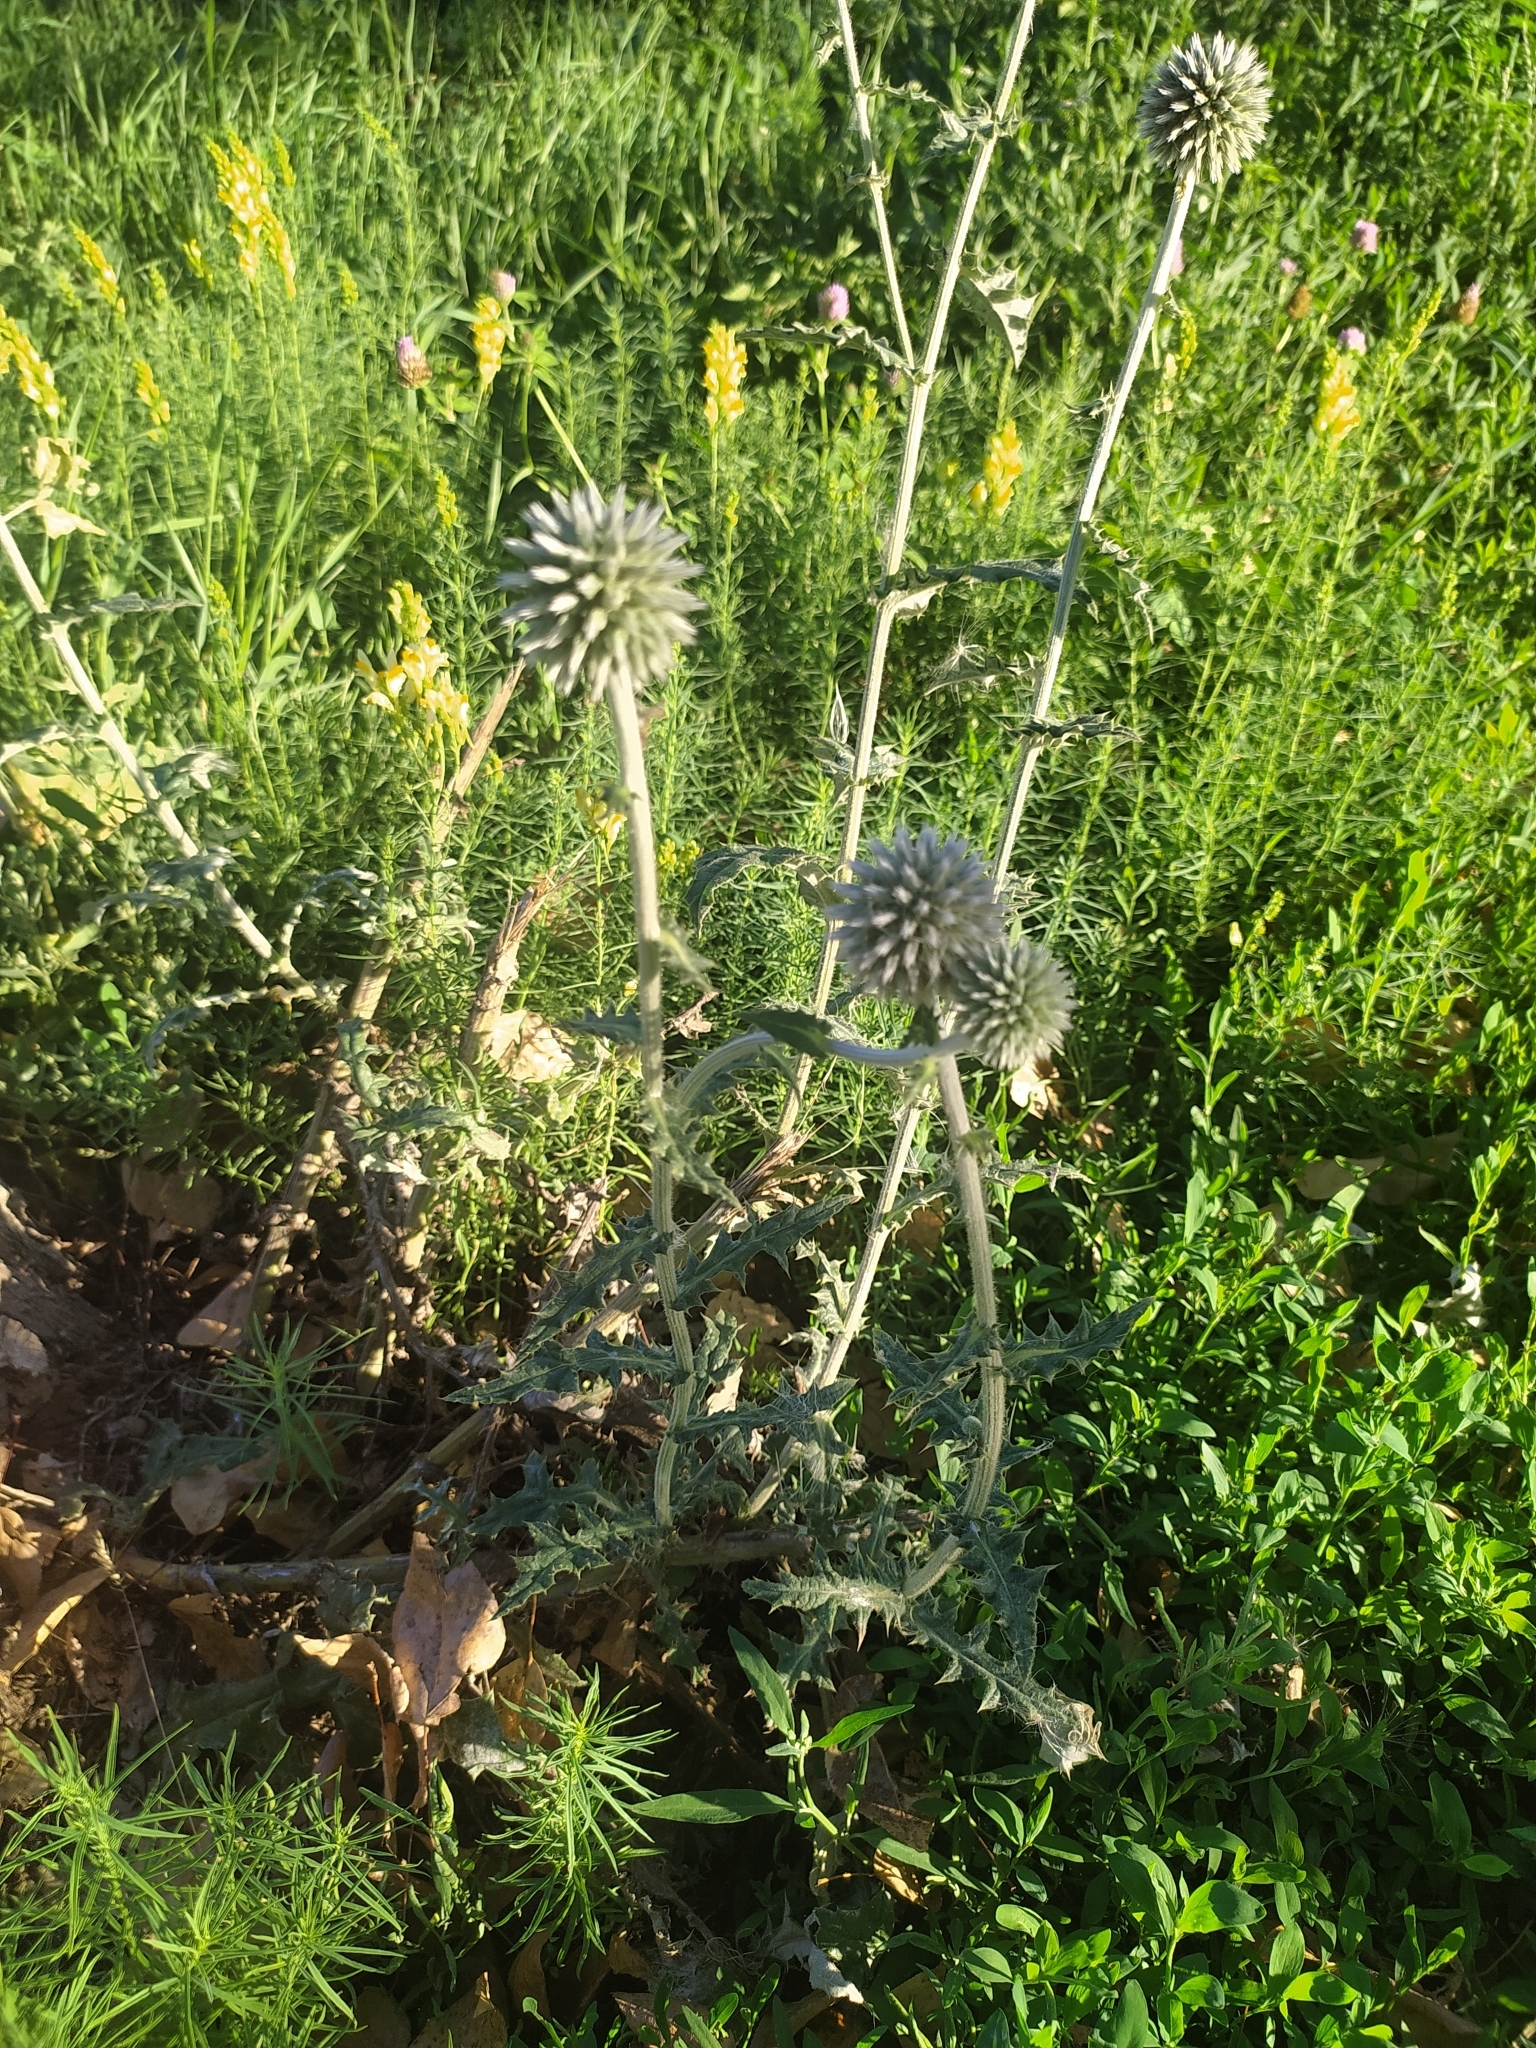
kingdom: Plantae
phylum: Tracheophyta
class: Magnoliopsida
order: Asterales
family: Asteraceae
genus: Echinops
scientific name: Echinops sphaerocephalus
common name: Glandular globe-thistle
